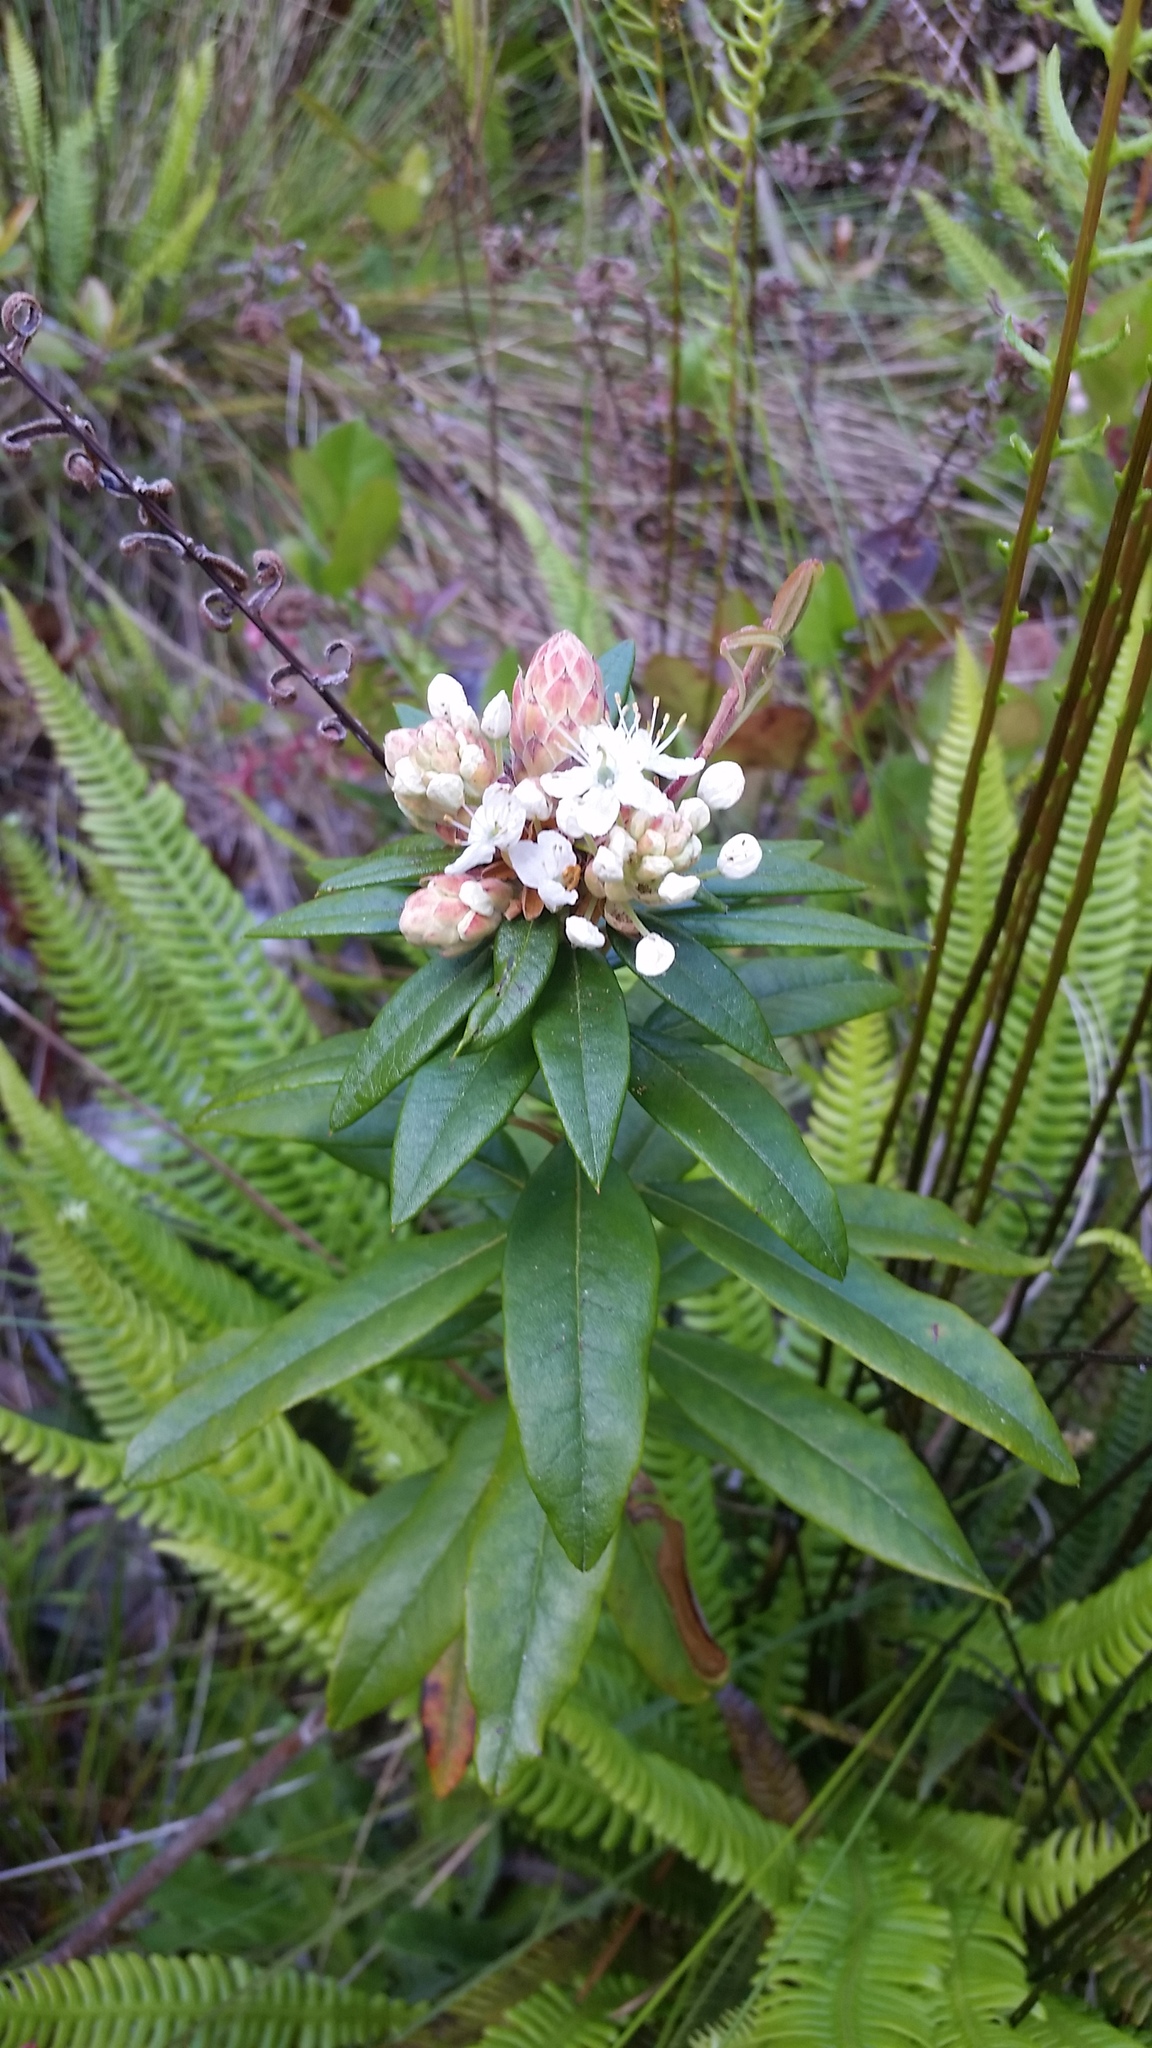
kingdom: Plantae
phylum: Tracheophyta
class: Magnoliopsida
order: Ericales
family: Ericaceae
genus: Rhododendron
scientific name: Rhododendron columbianum
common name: Western labrador tea
